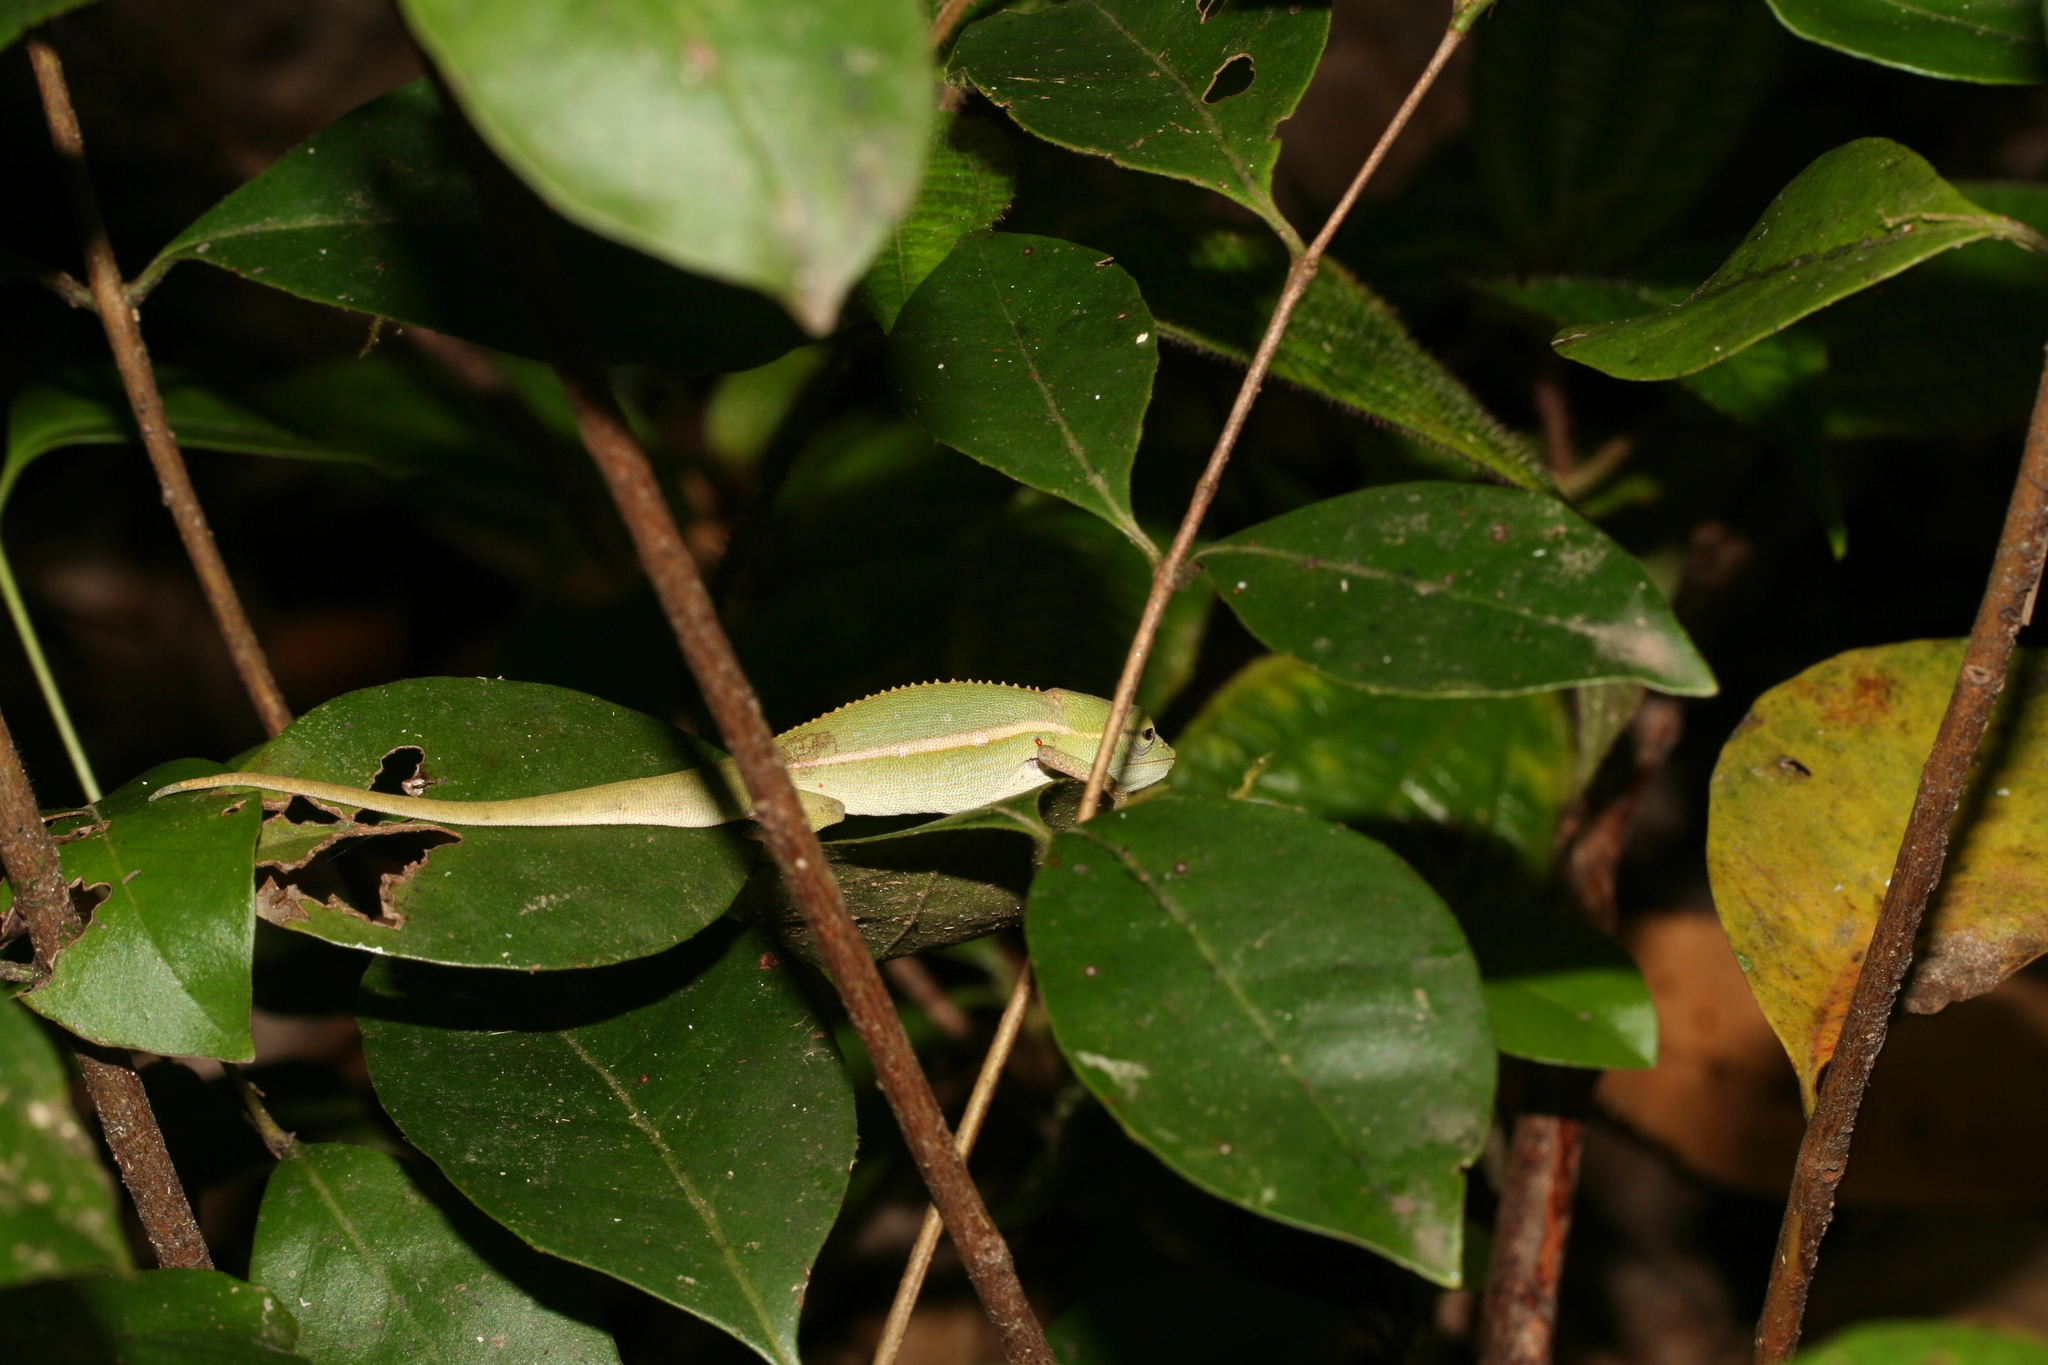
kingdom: Animalia
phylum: Chordata
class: Squamata
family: Chamaeleonidae
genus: Calumma
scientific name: Calumma gastrotaenia
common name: Short-nosed chameleon
